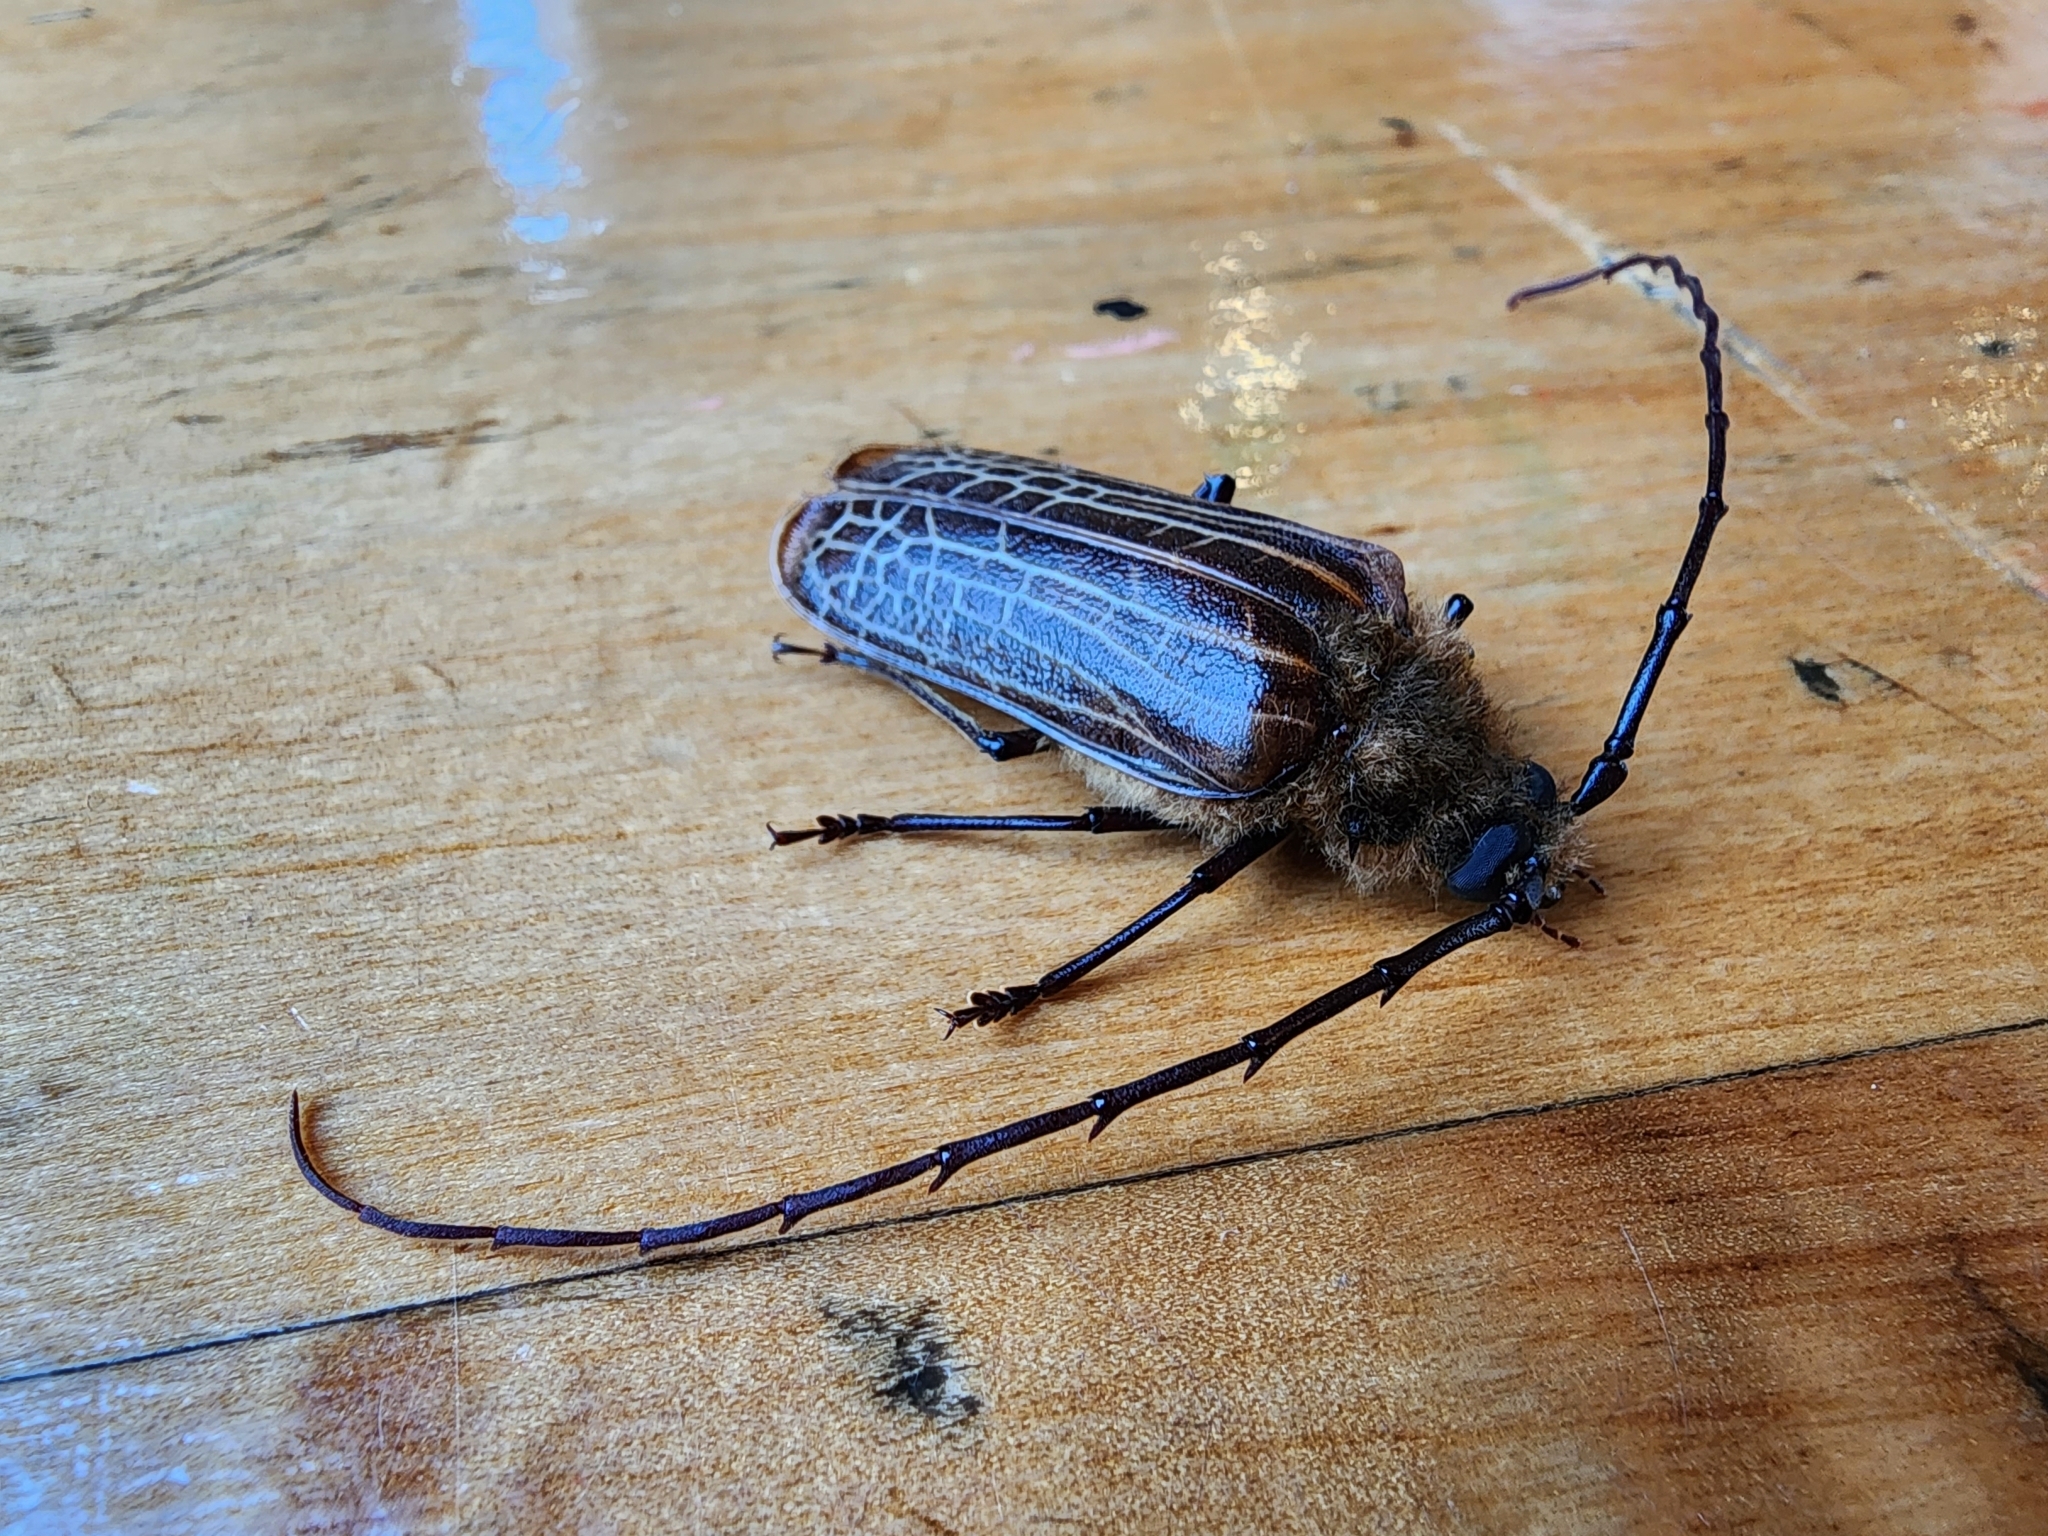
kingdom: Animalia
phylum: Arthropoda
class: Insecta
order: Coleoptera
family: Cerambycidae
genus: Prionoplus
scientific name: Prionoplus reticularis
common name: Huhu beetle
